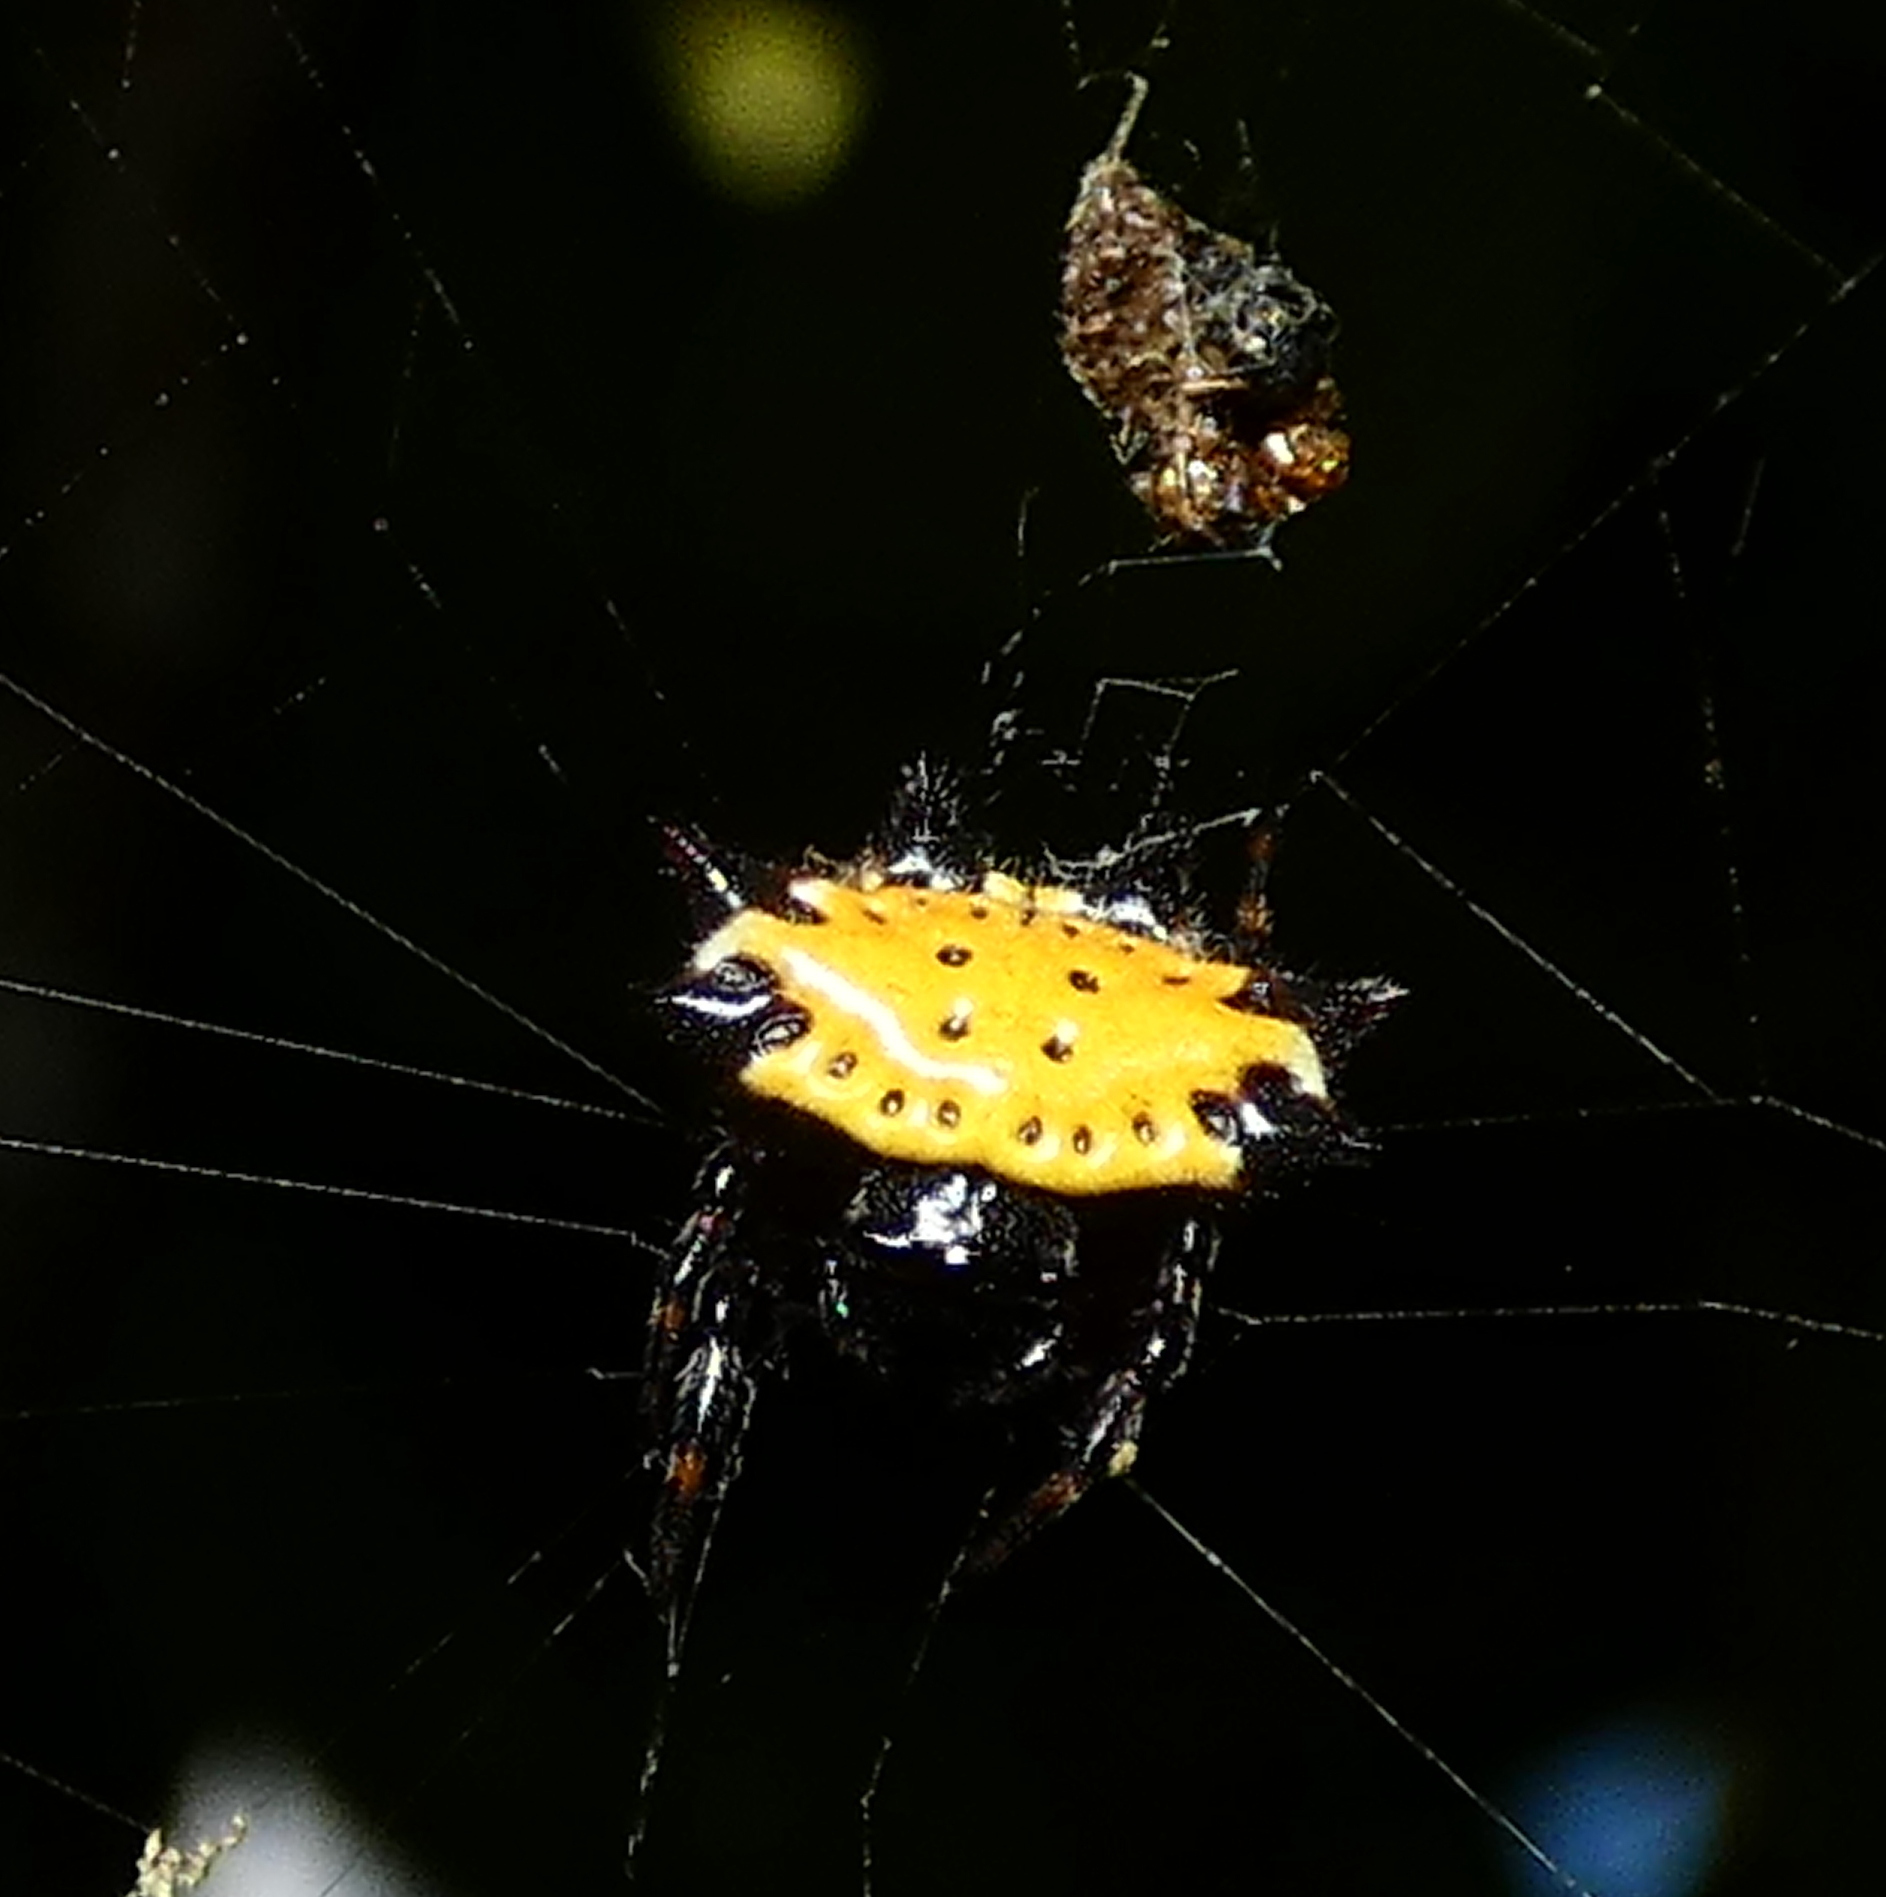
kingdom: Animalia
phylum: Arthropoda
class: Arachnida
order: Araneae
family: Araneidae
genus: Gasteracantha
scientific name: Gasteracantha cancriformis
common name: Orb weavers
